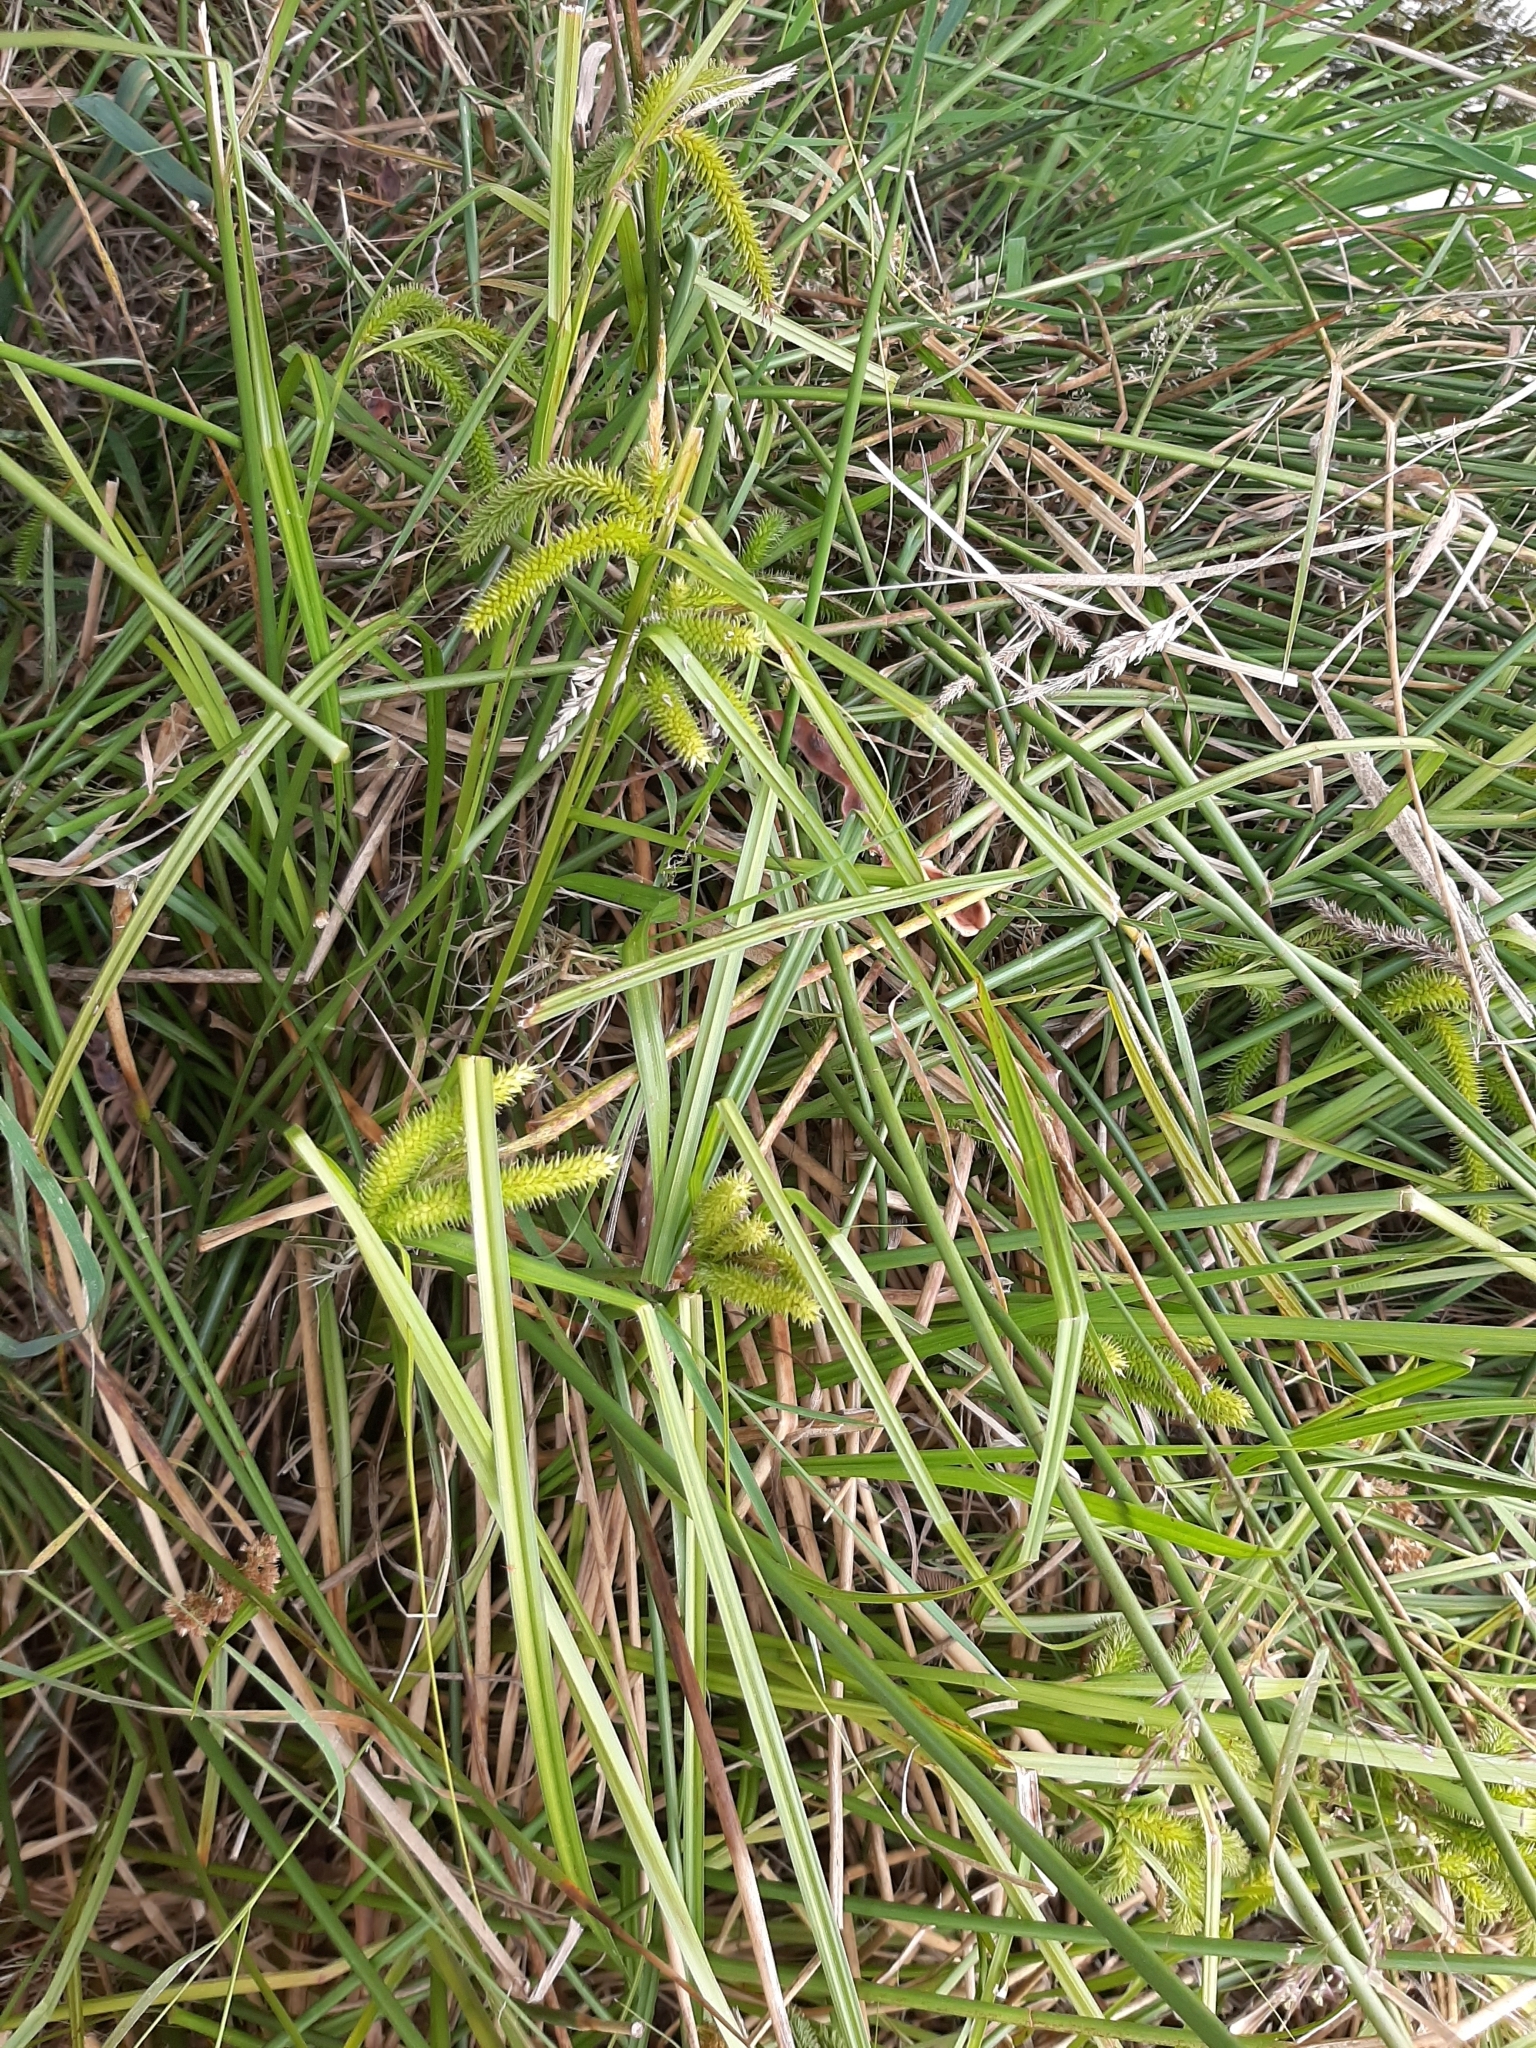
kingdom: Plantae
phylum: Tracheophyta
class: Liliopsida
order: Poales
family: Cyperaceae
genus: Carex
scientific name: Carex maorica
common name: Maori sedge
